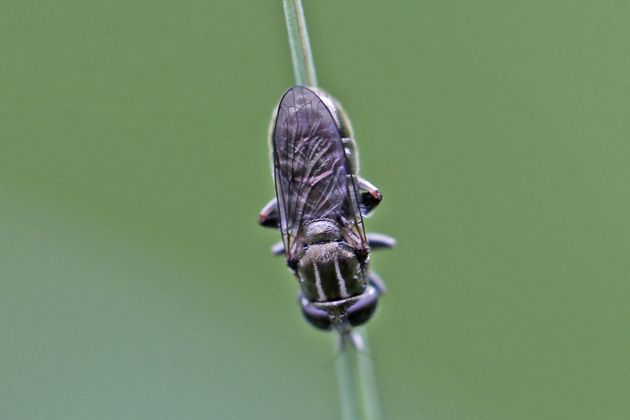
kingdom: Animalia
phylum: Arthropoda
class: Insecta
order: Diptera
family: Syrphidae
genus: Eumerus
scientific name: Eumerus
